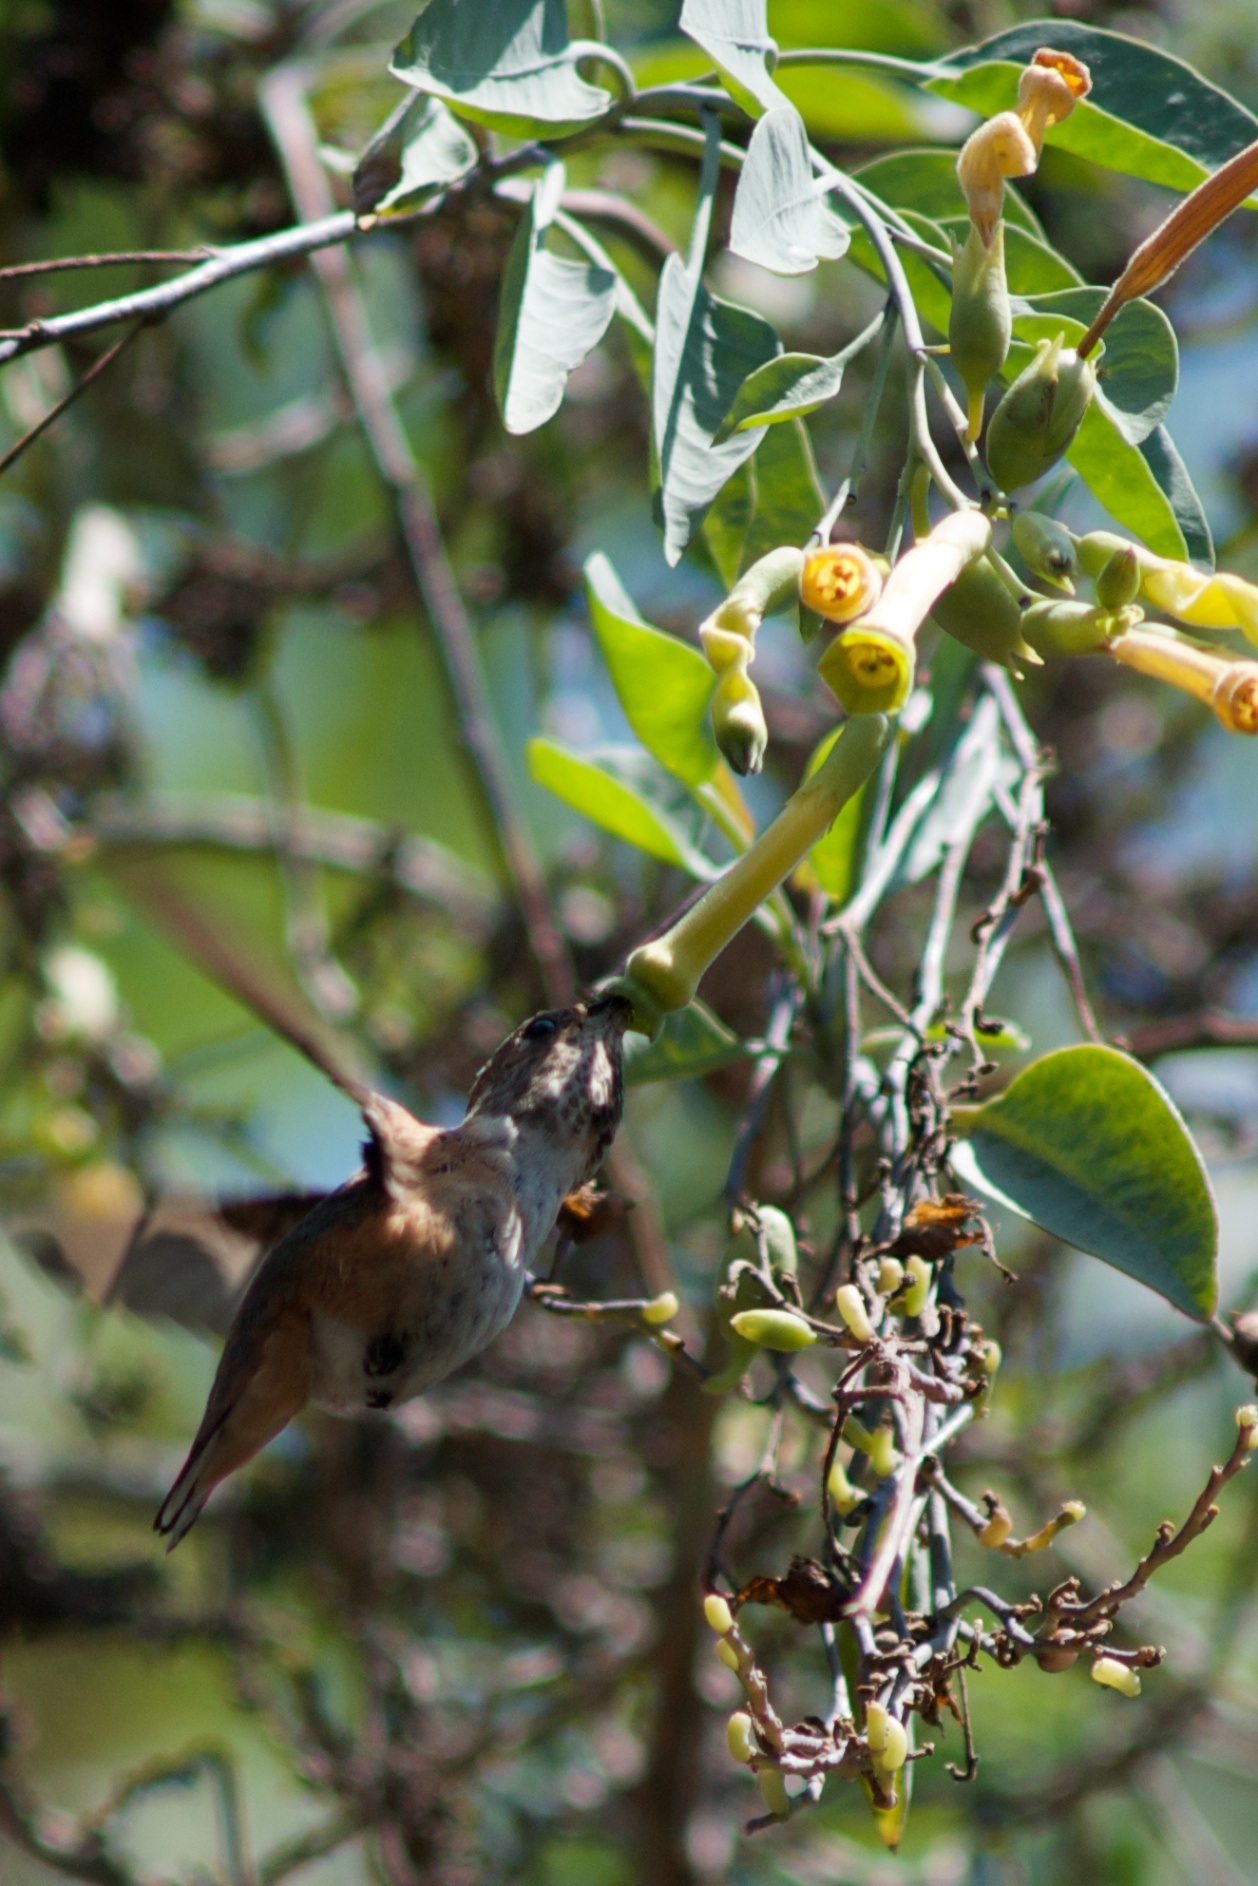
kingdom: Animalia
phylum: Chordata
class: Aves
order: Apodiformes
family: Trochilidae
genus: Selasphorus
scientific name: Selasphorus sasin
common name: Allen's hummingbird
